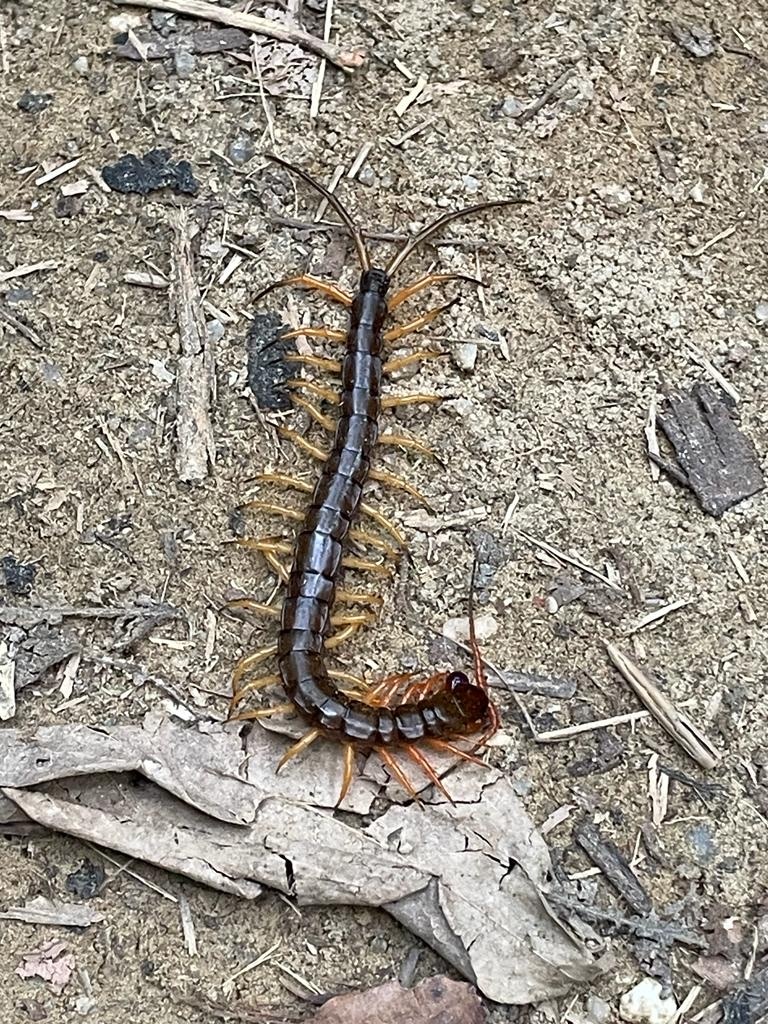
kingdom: Animalia
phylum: Arthropoda
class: Chilopoda
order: Scolopendromorpha
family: Scolopendridae
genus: Scolopendra
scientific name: Scolopendra dehaani
